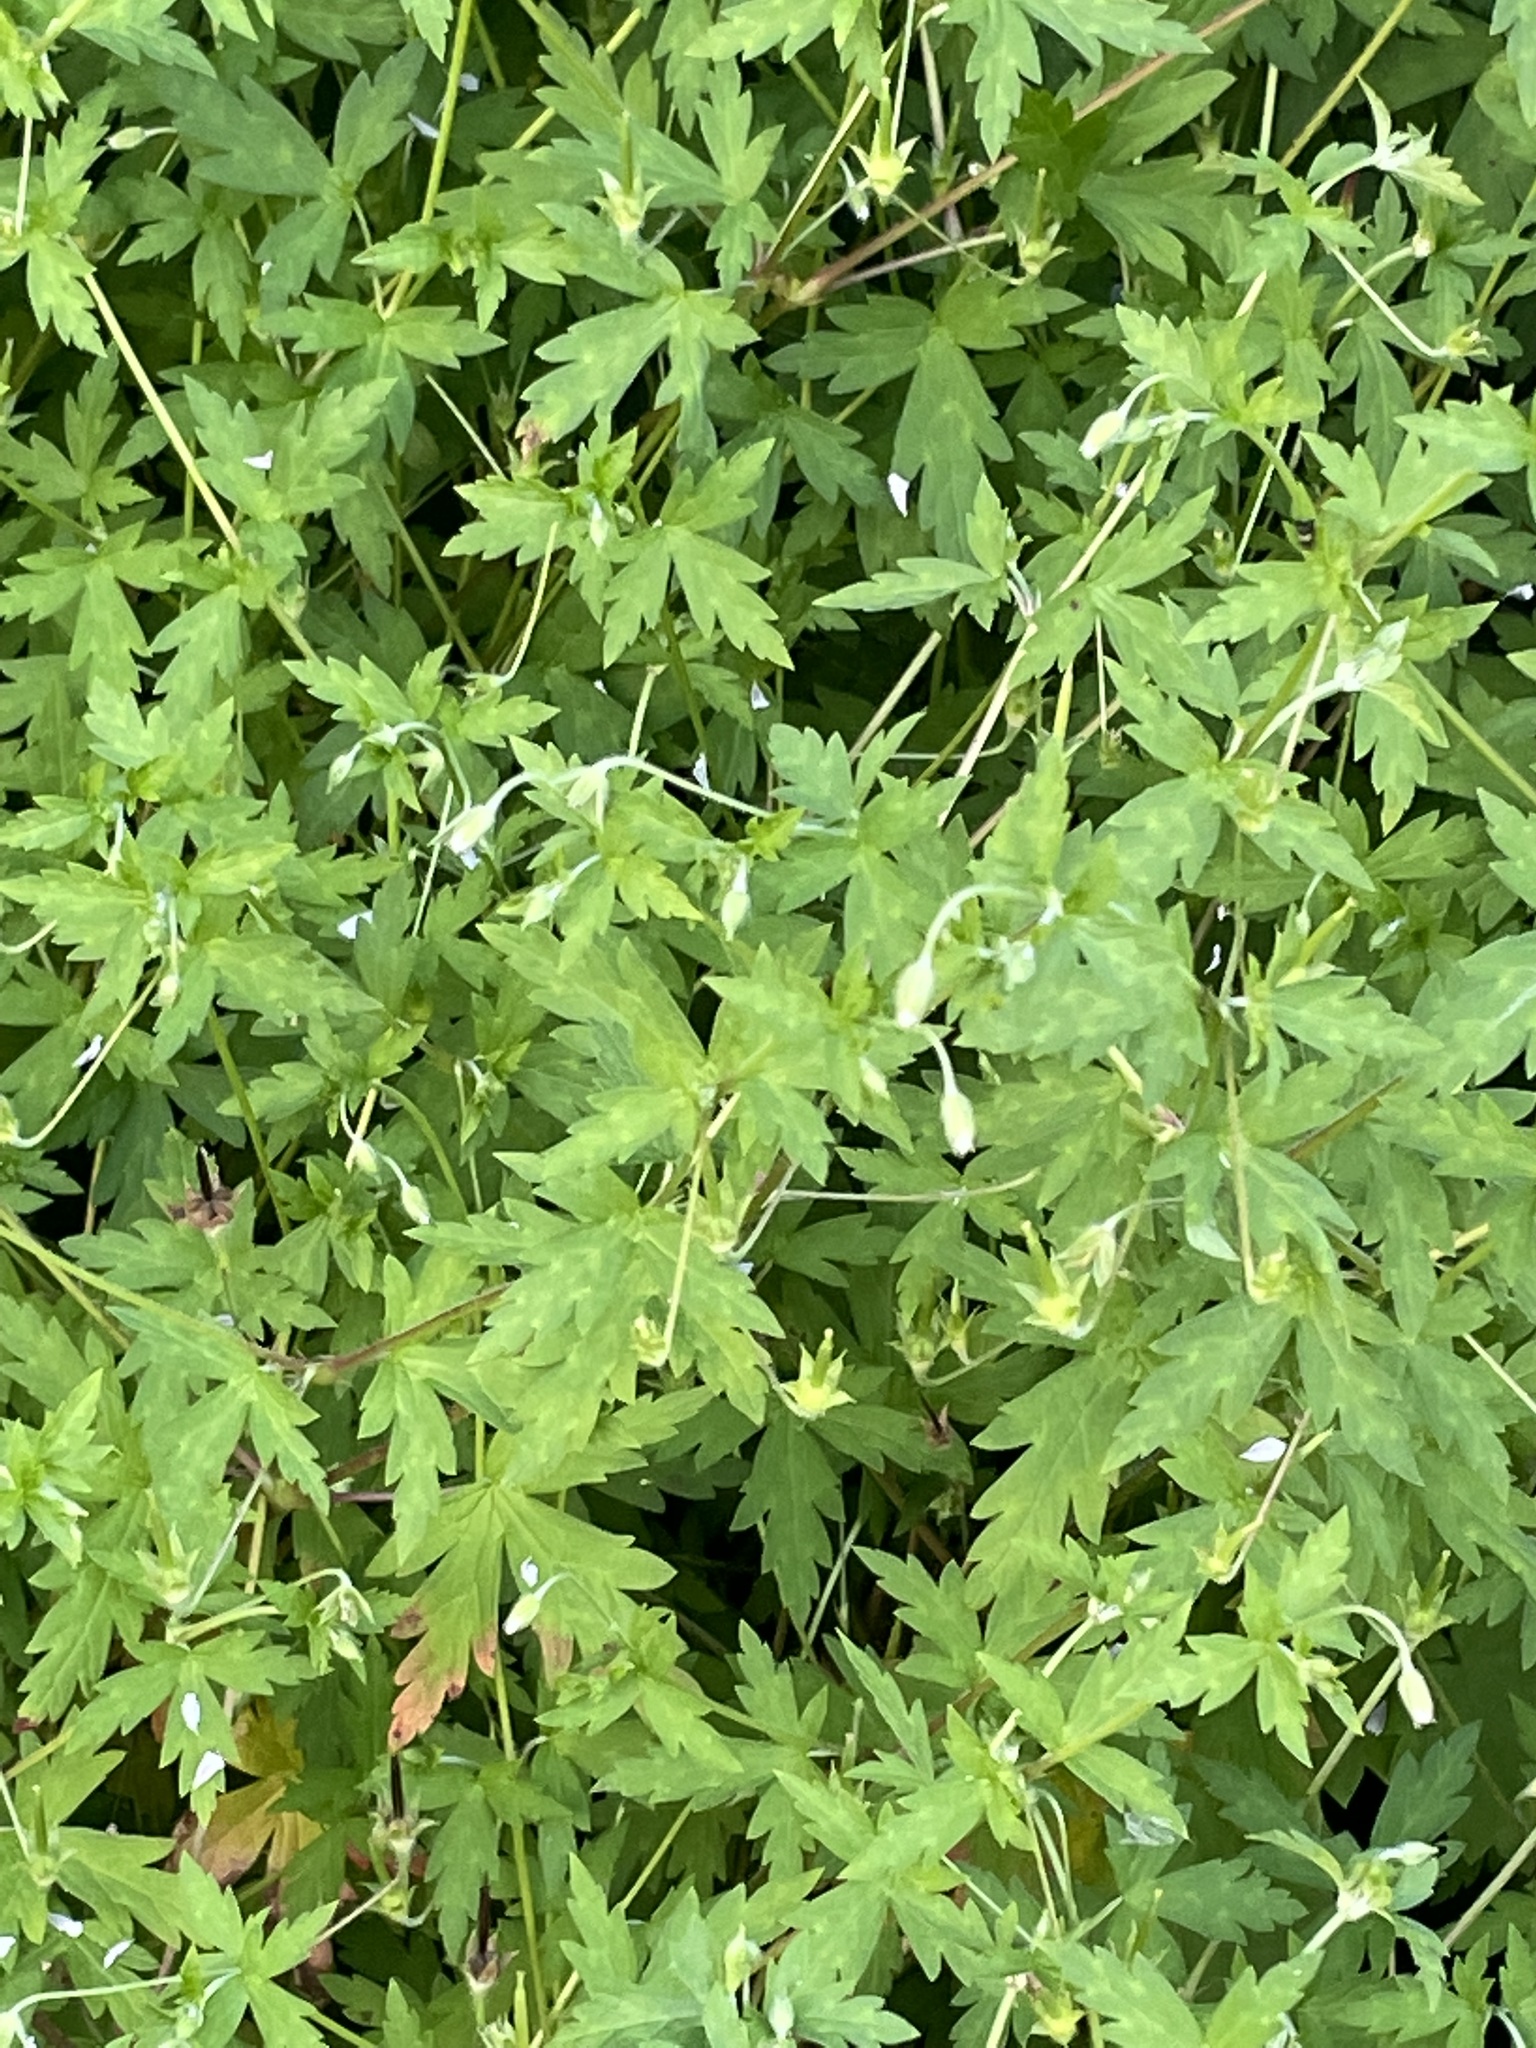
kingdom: Plantae
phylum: Tracheophyta
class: Magnoliopsida
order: Geraniales
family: Geraniaceae
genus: Geranium
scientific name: Geranium sibiricum
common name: Siberian crane's-bill
